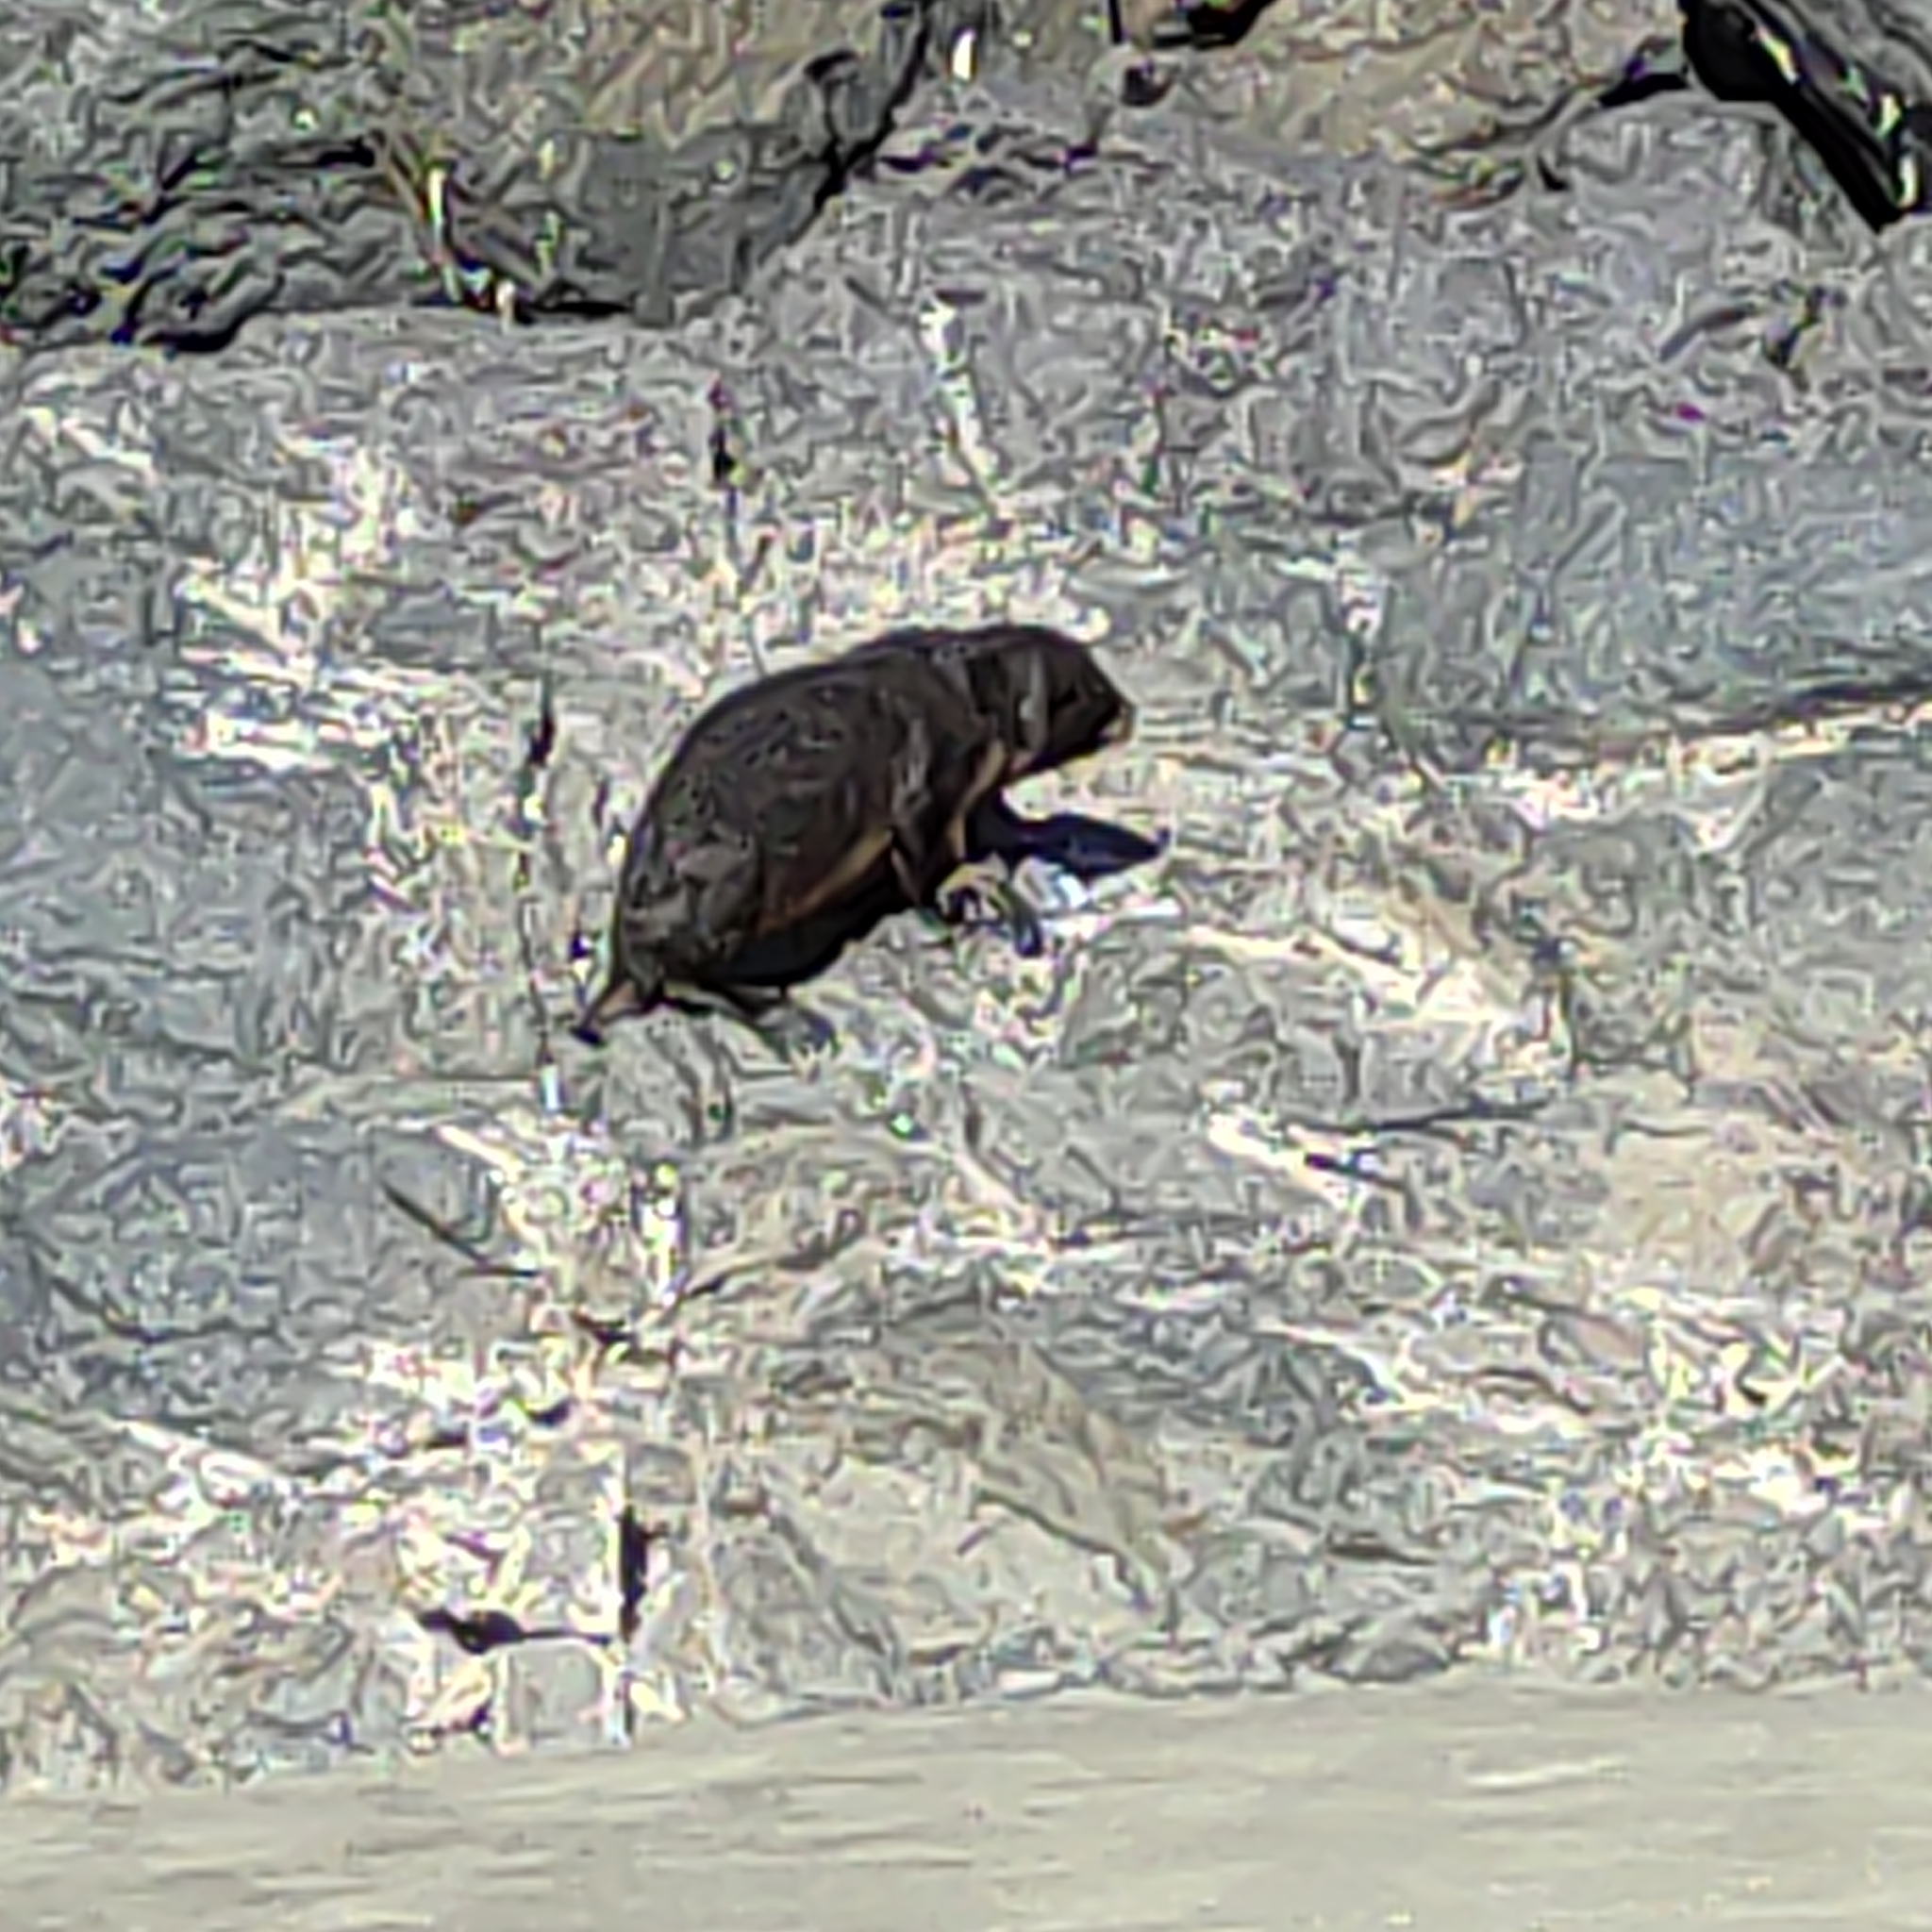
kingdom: Animalia
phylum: Chordata
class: Mammalia
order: Carnivora
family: Otariidae
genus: Arctocephalus
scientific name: Arctocephalus forsteri
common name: New zealand fur seal
